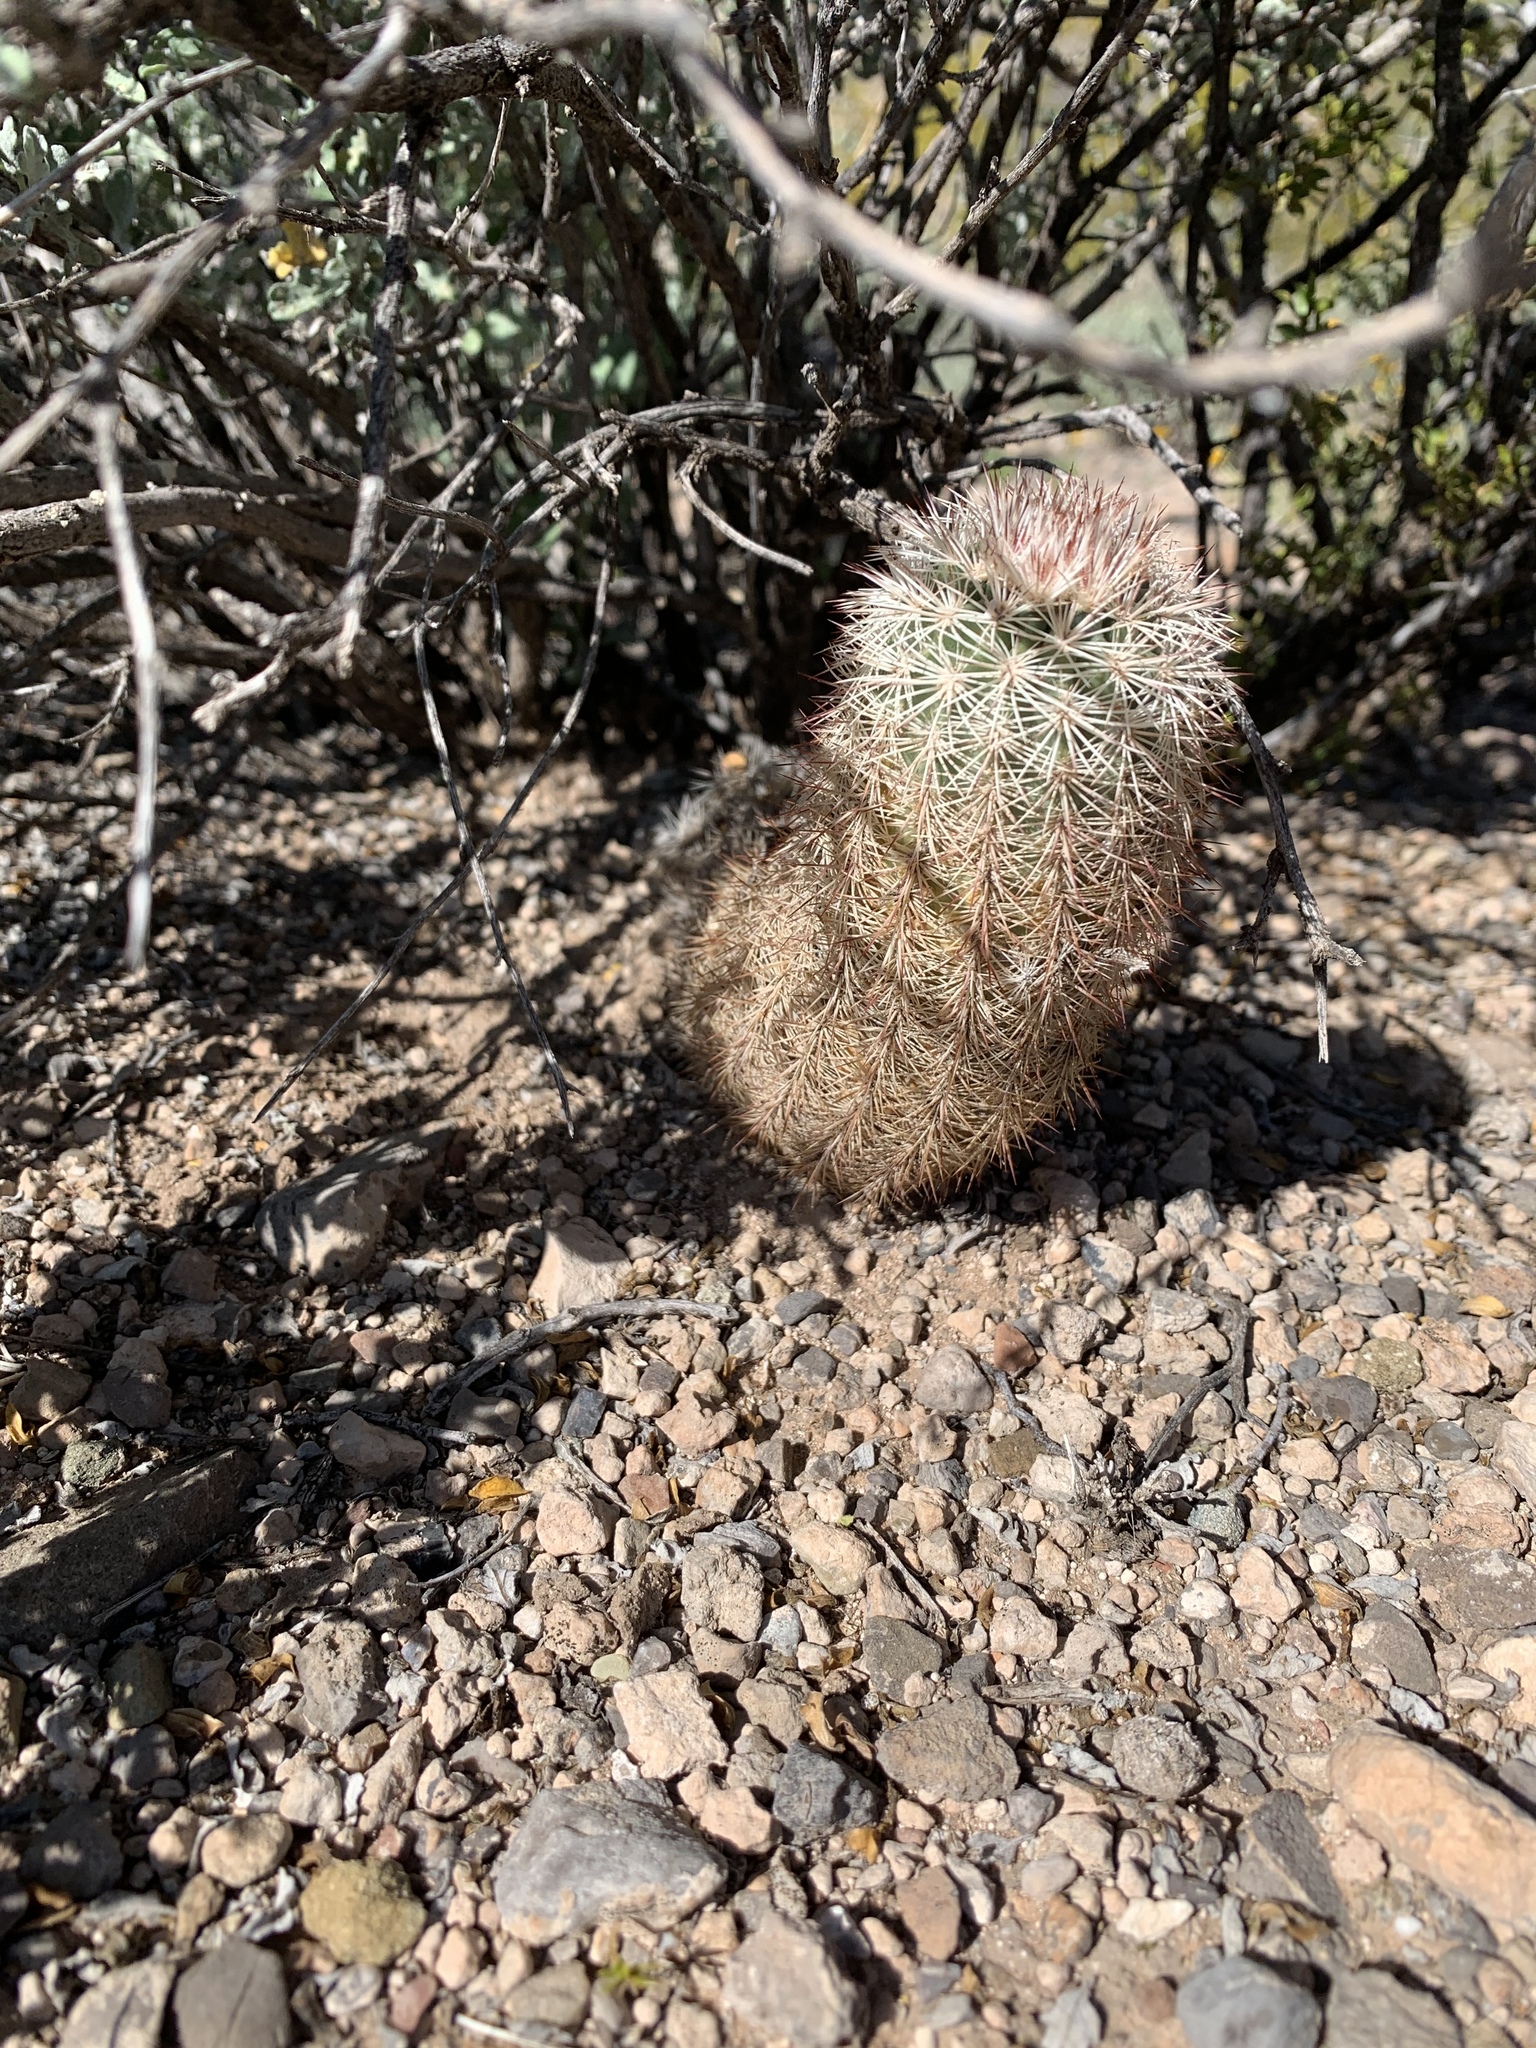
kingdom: Plantae
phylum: Tracheophyta
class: Magnoliopsida
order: Caryophyllales
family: Cactaceae
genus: Echinocereus
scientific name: Echinocereus dasyacanthus
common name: Spiny hedgehog cactus
